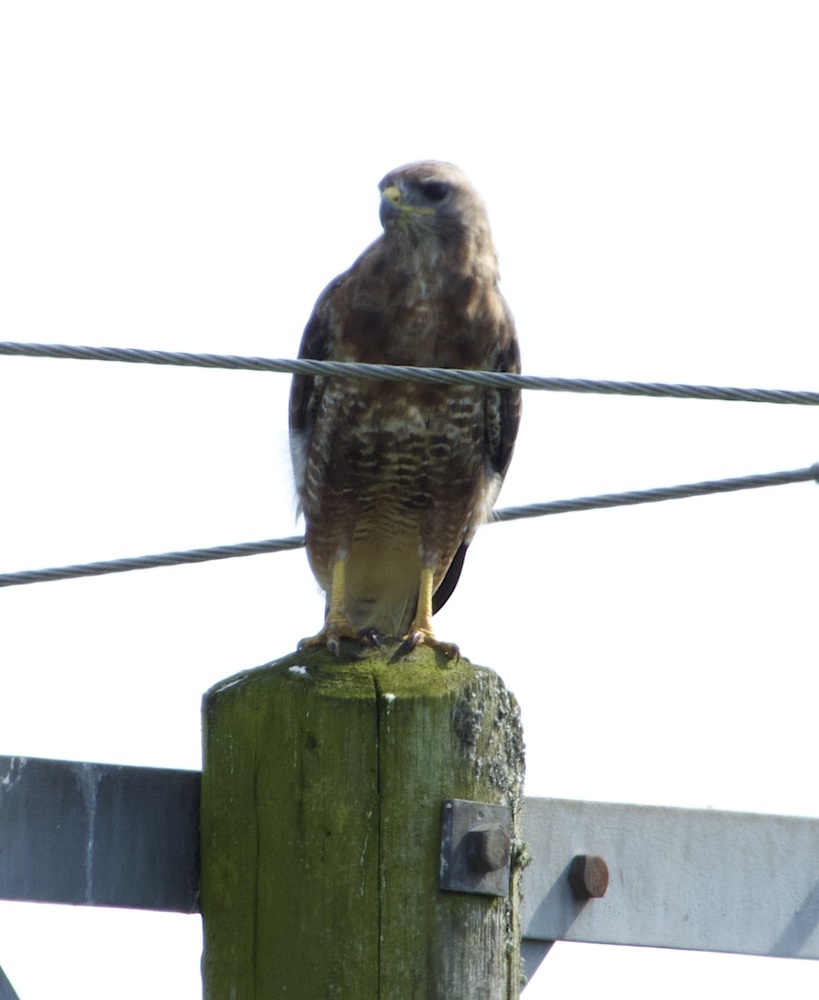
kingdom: Animalia
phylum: Chordata
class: Aves
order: Accipitriformes
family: Accipitridae
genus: Buteo
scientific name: Buteo buteo
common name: Common buzzard
